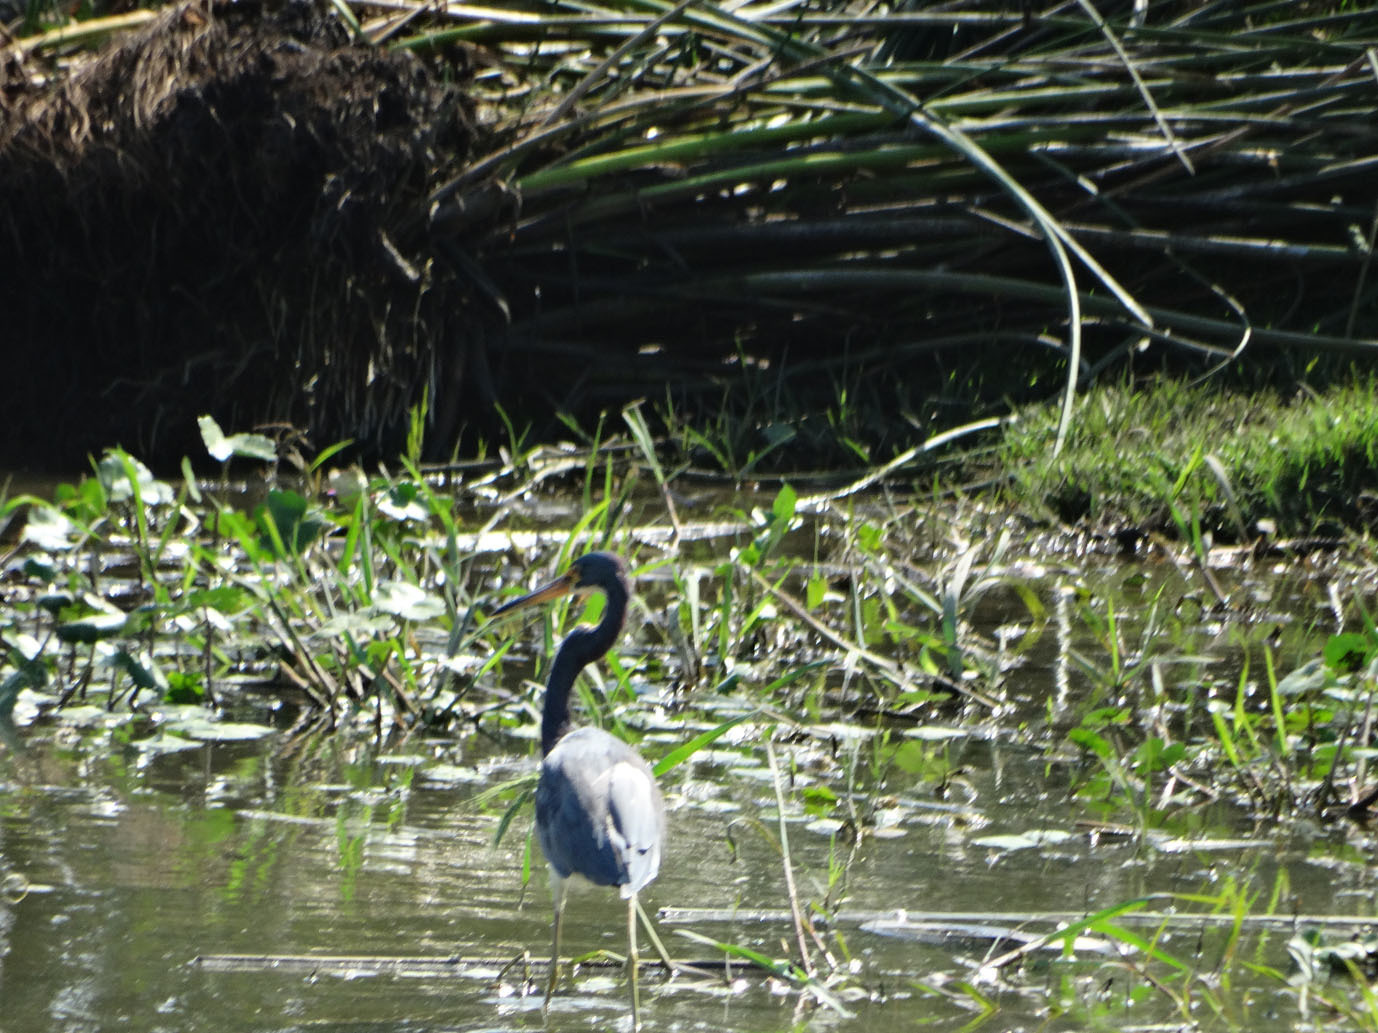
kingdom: Animalia
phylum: Chordata
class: Aves
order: Pelecaniformes
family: Ardeidae
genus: Egretta
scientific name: Egretta tricolor
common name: Tricolored heron
